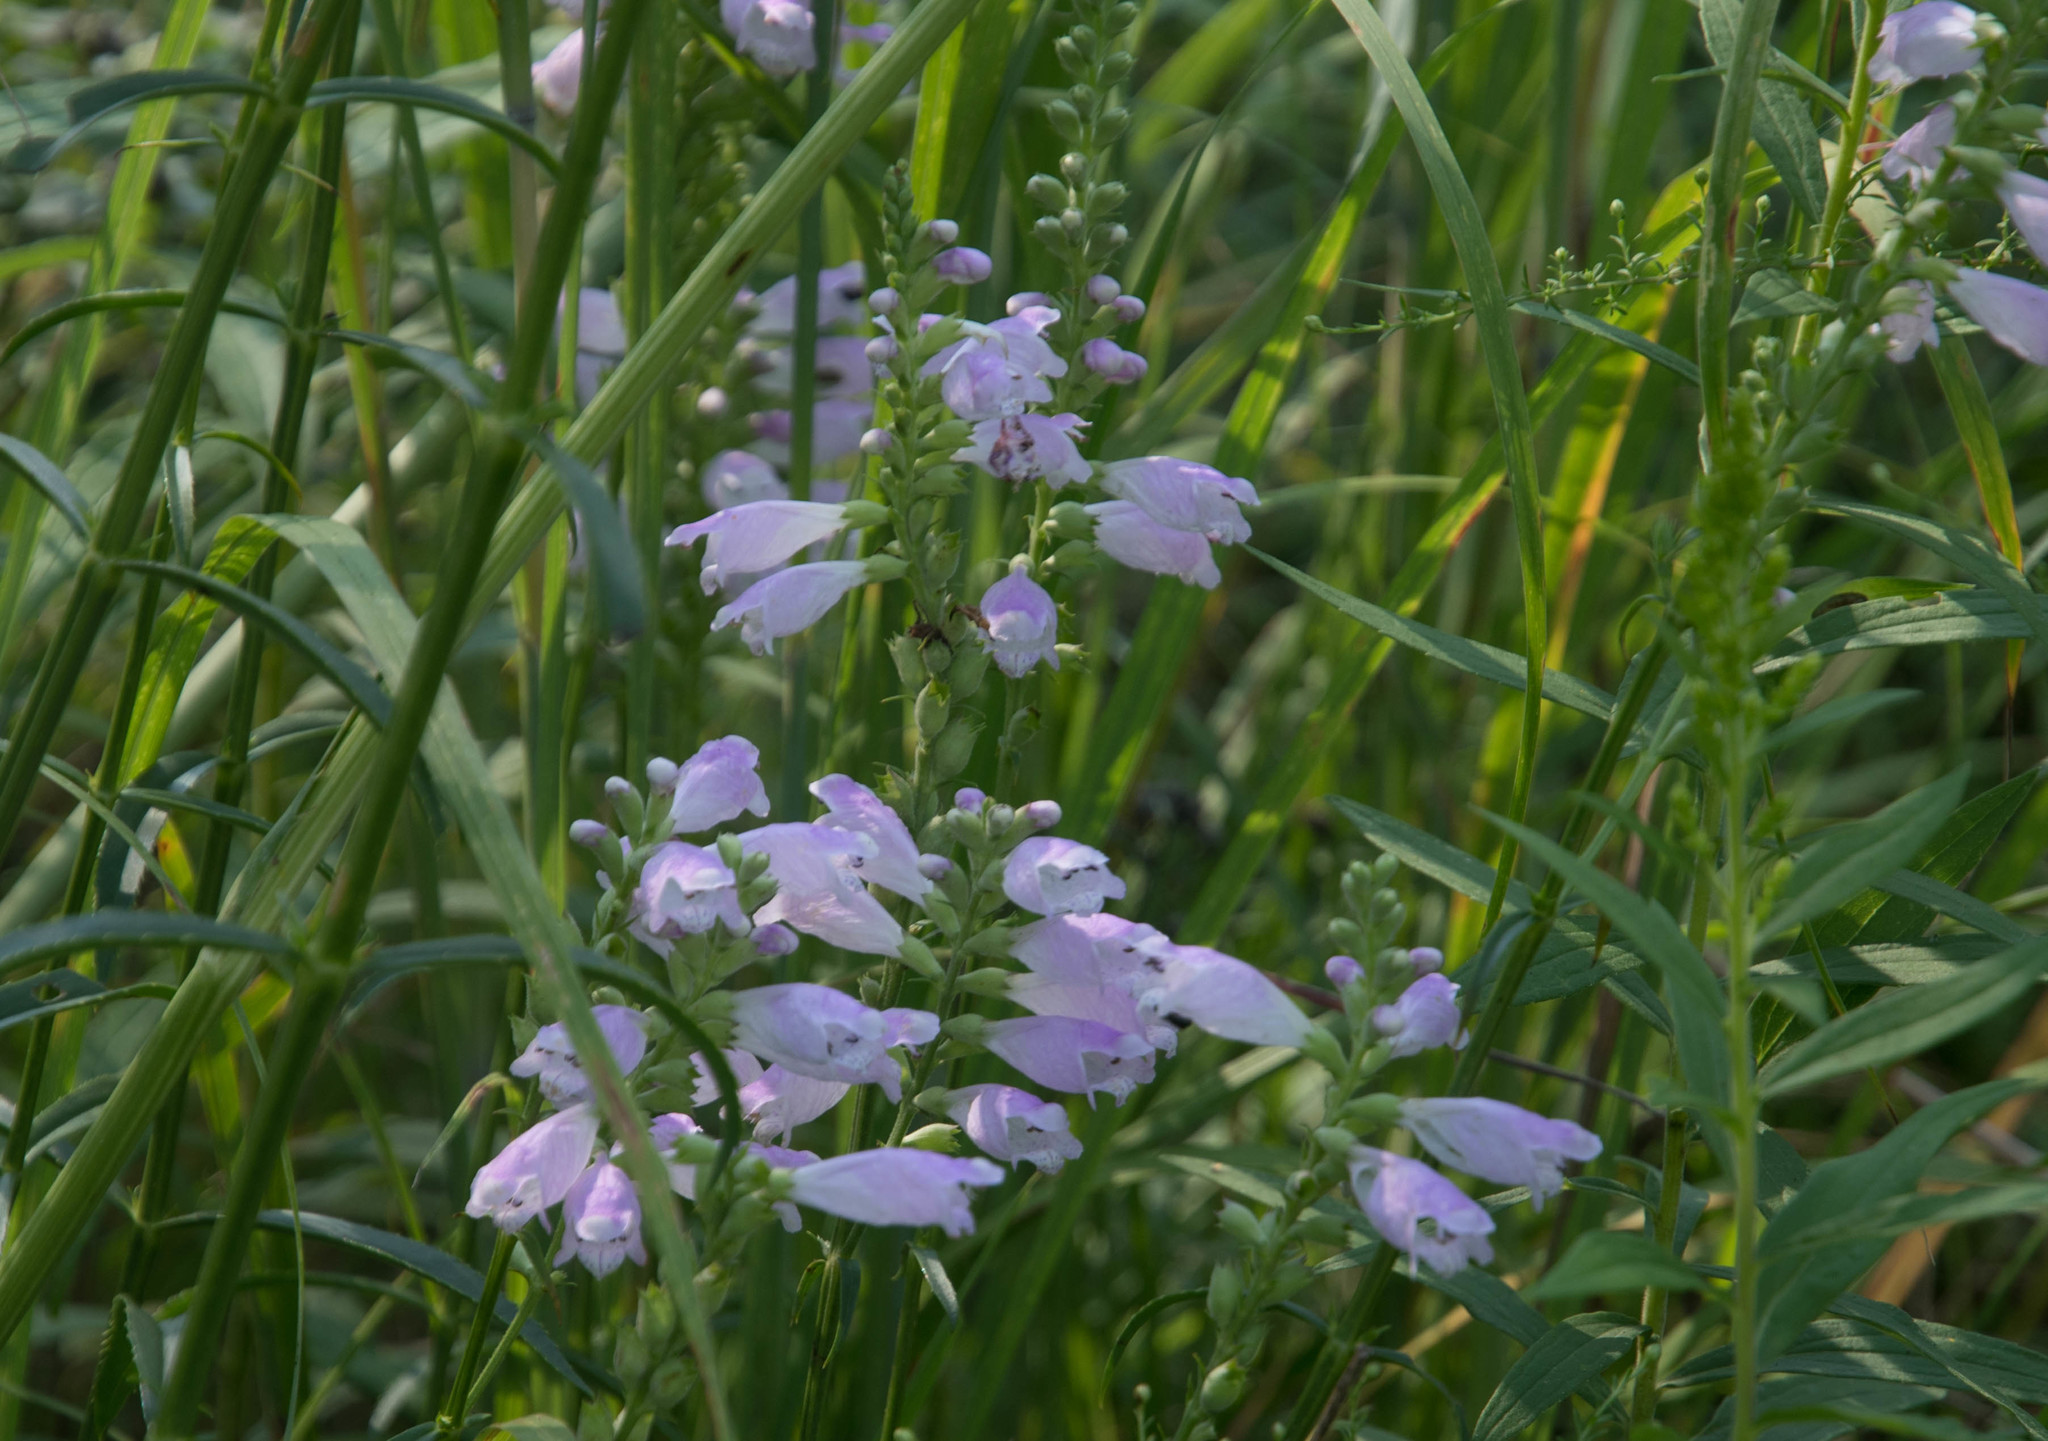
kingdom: Plantae
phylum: Tracheophyta
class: Magnoliopsida
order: Lamiales
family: Lamiaceae
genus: Physostegia
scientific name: Physostegia virginiana
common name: Obedient-plant
